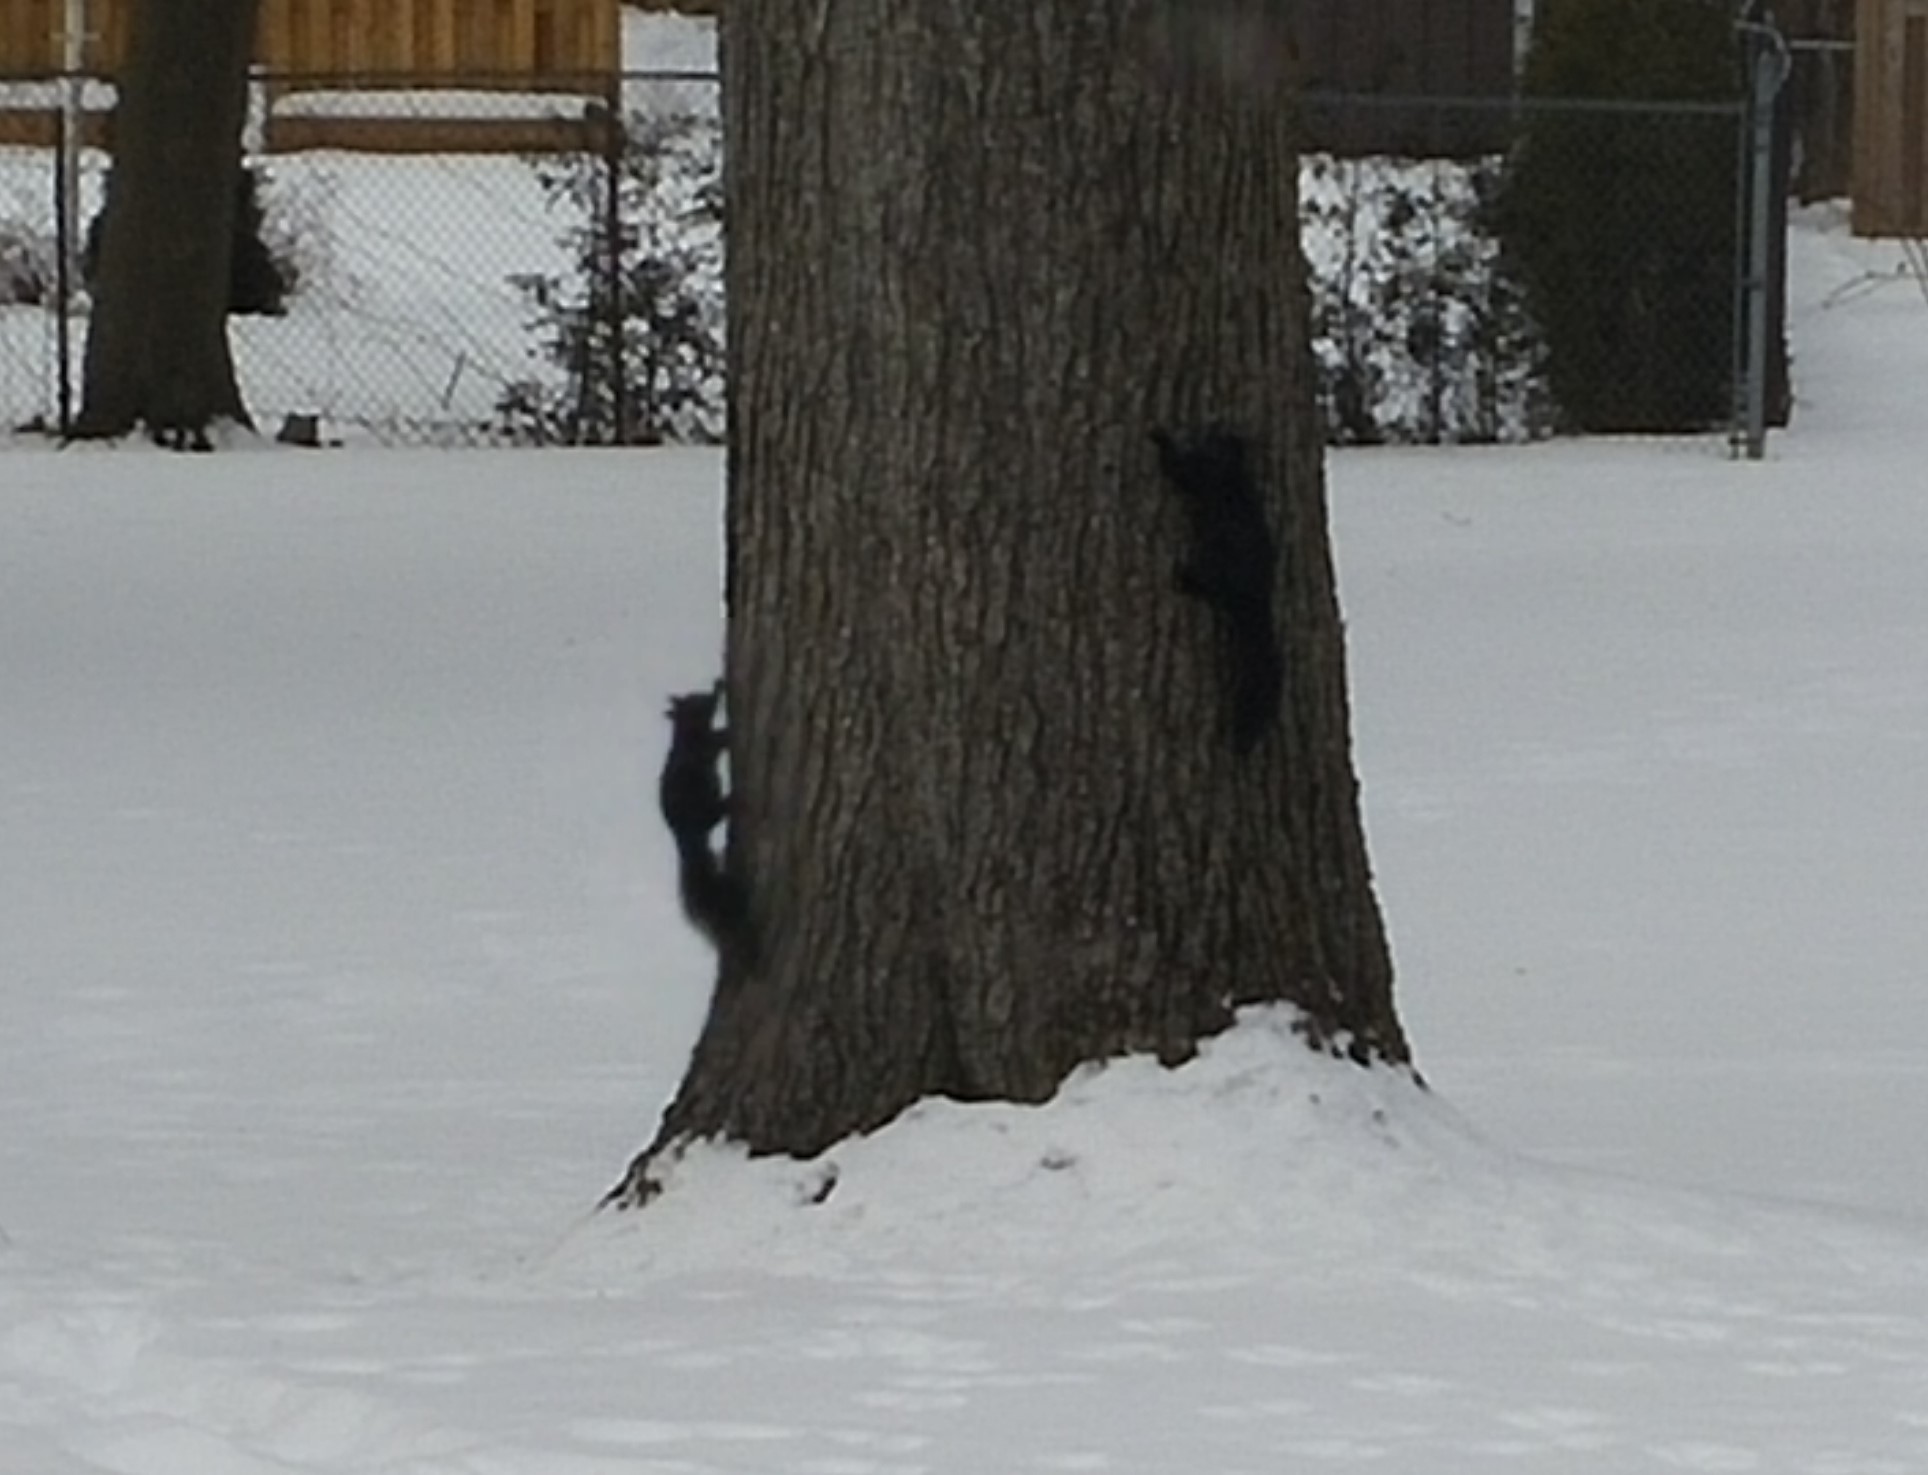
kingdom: Animalia
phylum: Chordata
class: Mammalia
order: Rodentia
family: Sciuridae
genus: Sciurus
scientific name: Sciurus carolinensis
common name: Eastern gray squirrel
